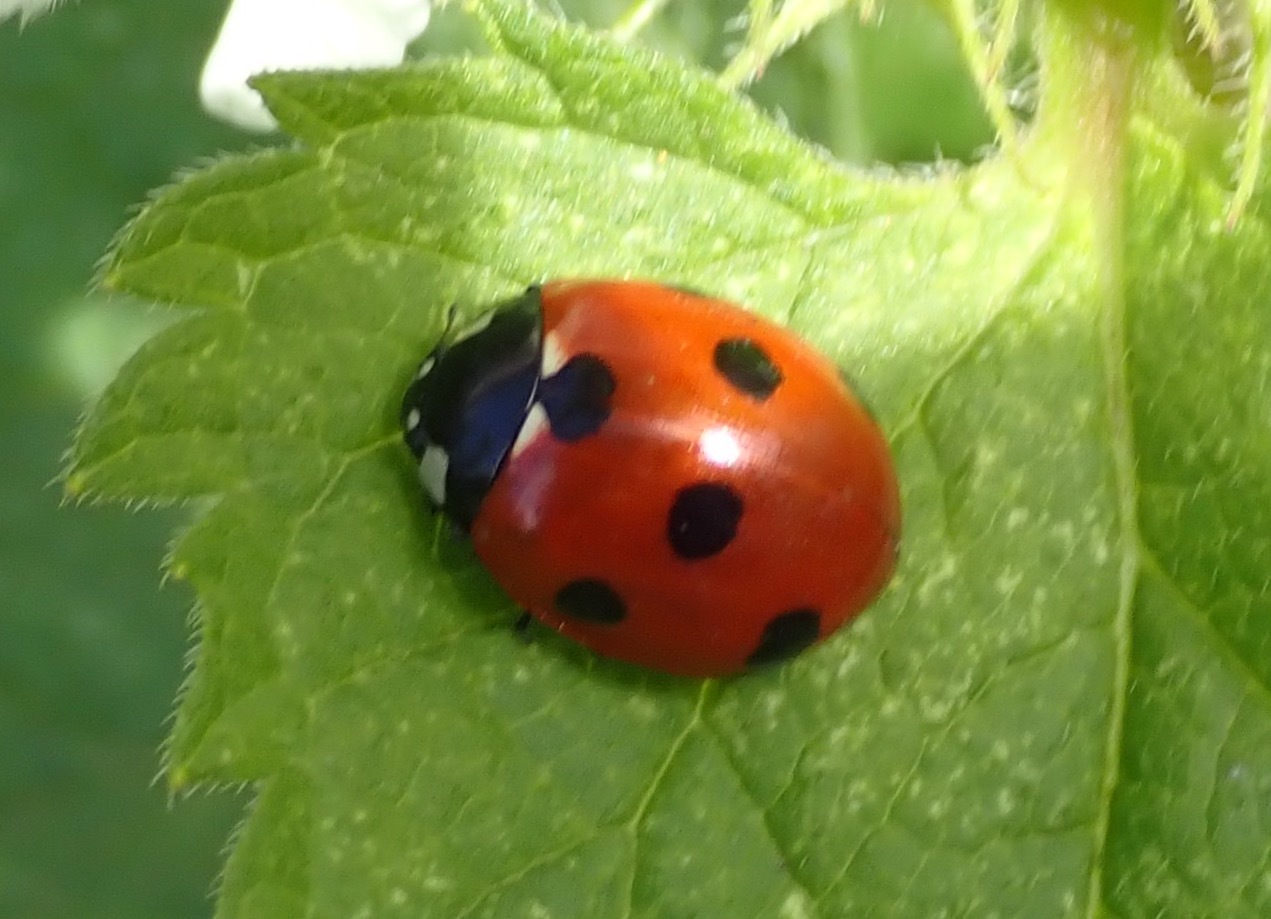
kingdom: Animalia
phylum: Arthropoda
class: Insecta
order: Coleoptera
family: Coccinellidae
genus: Coccinella
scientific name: Coccinella septempunctata
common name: Sevenspotted lady beetle
